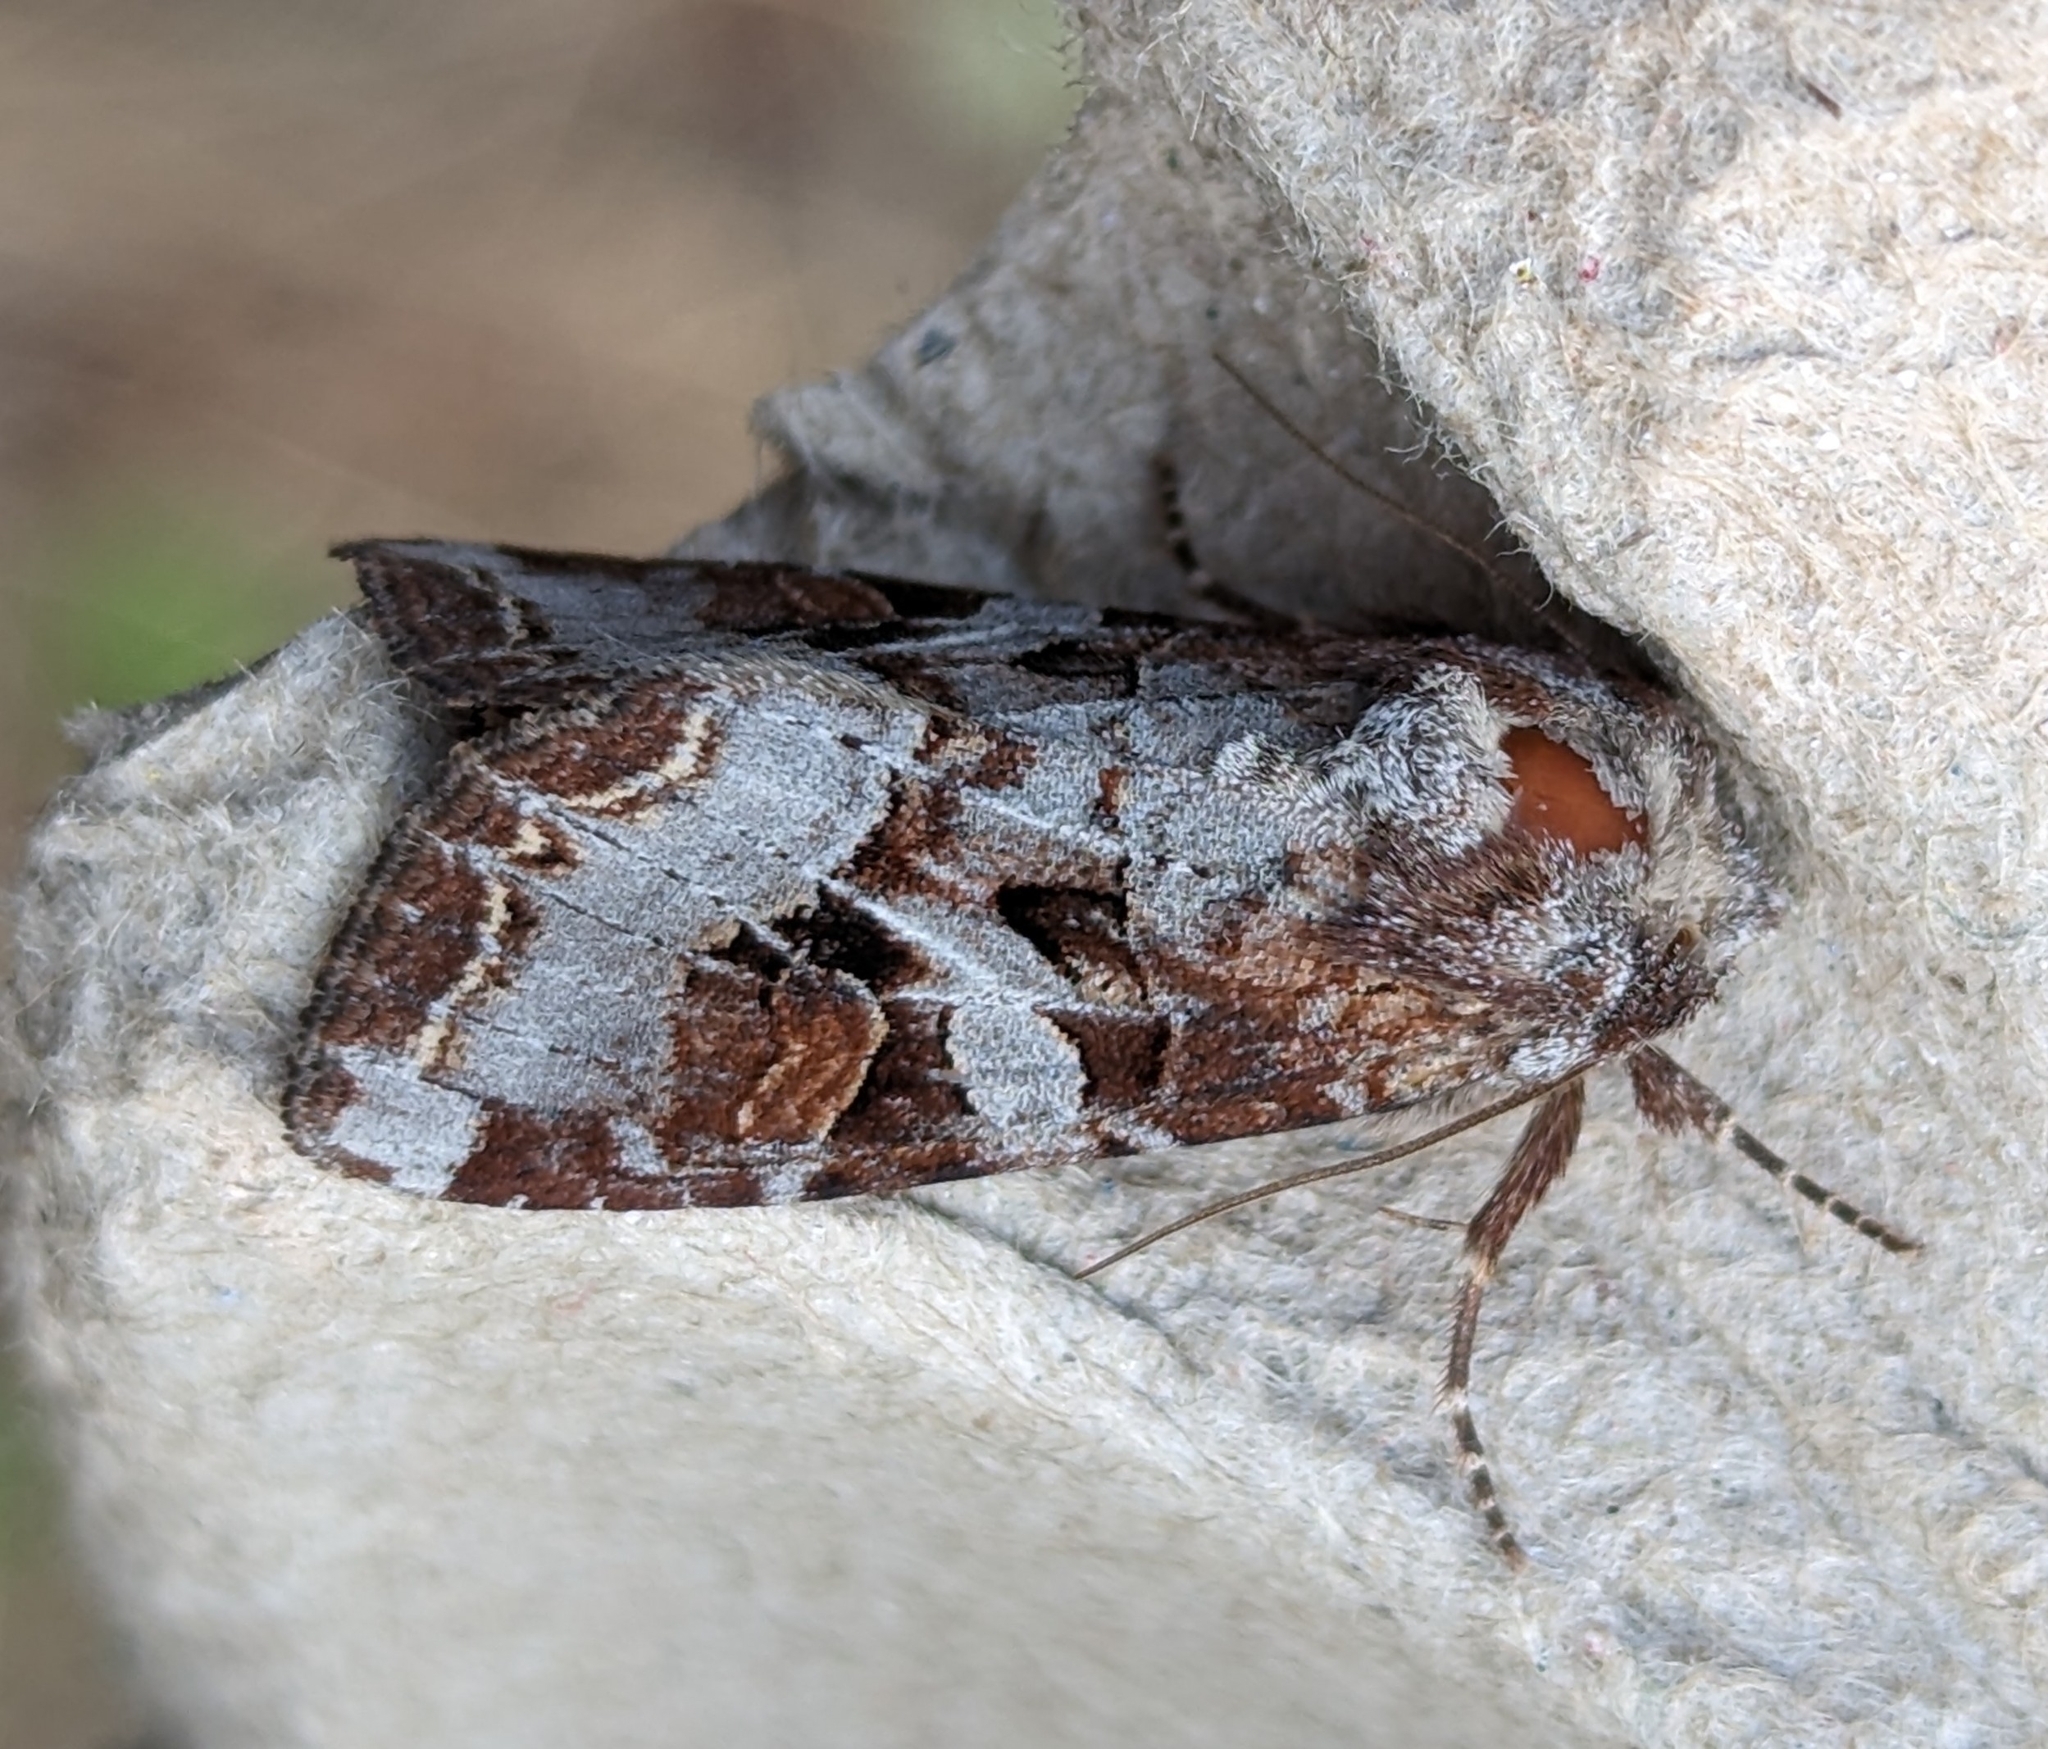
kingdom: Animalia
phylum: Arthropoda
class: Insecta
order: Lepidoptera
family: Noctuidae
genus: Trichordestra
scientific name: Trichordestra tacoma
